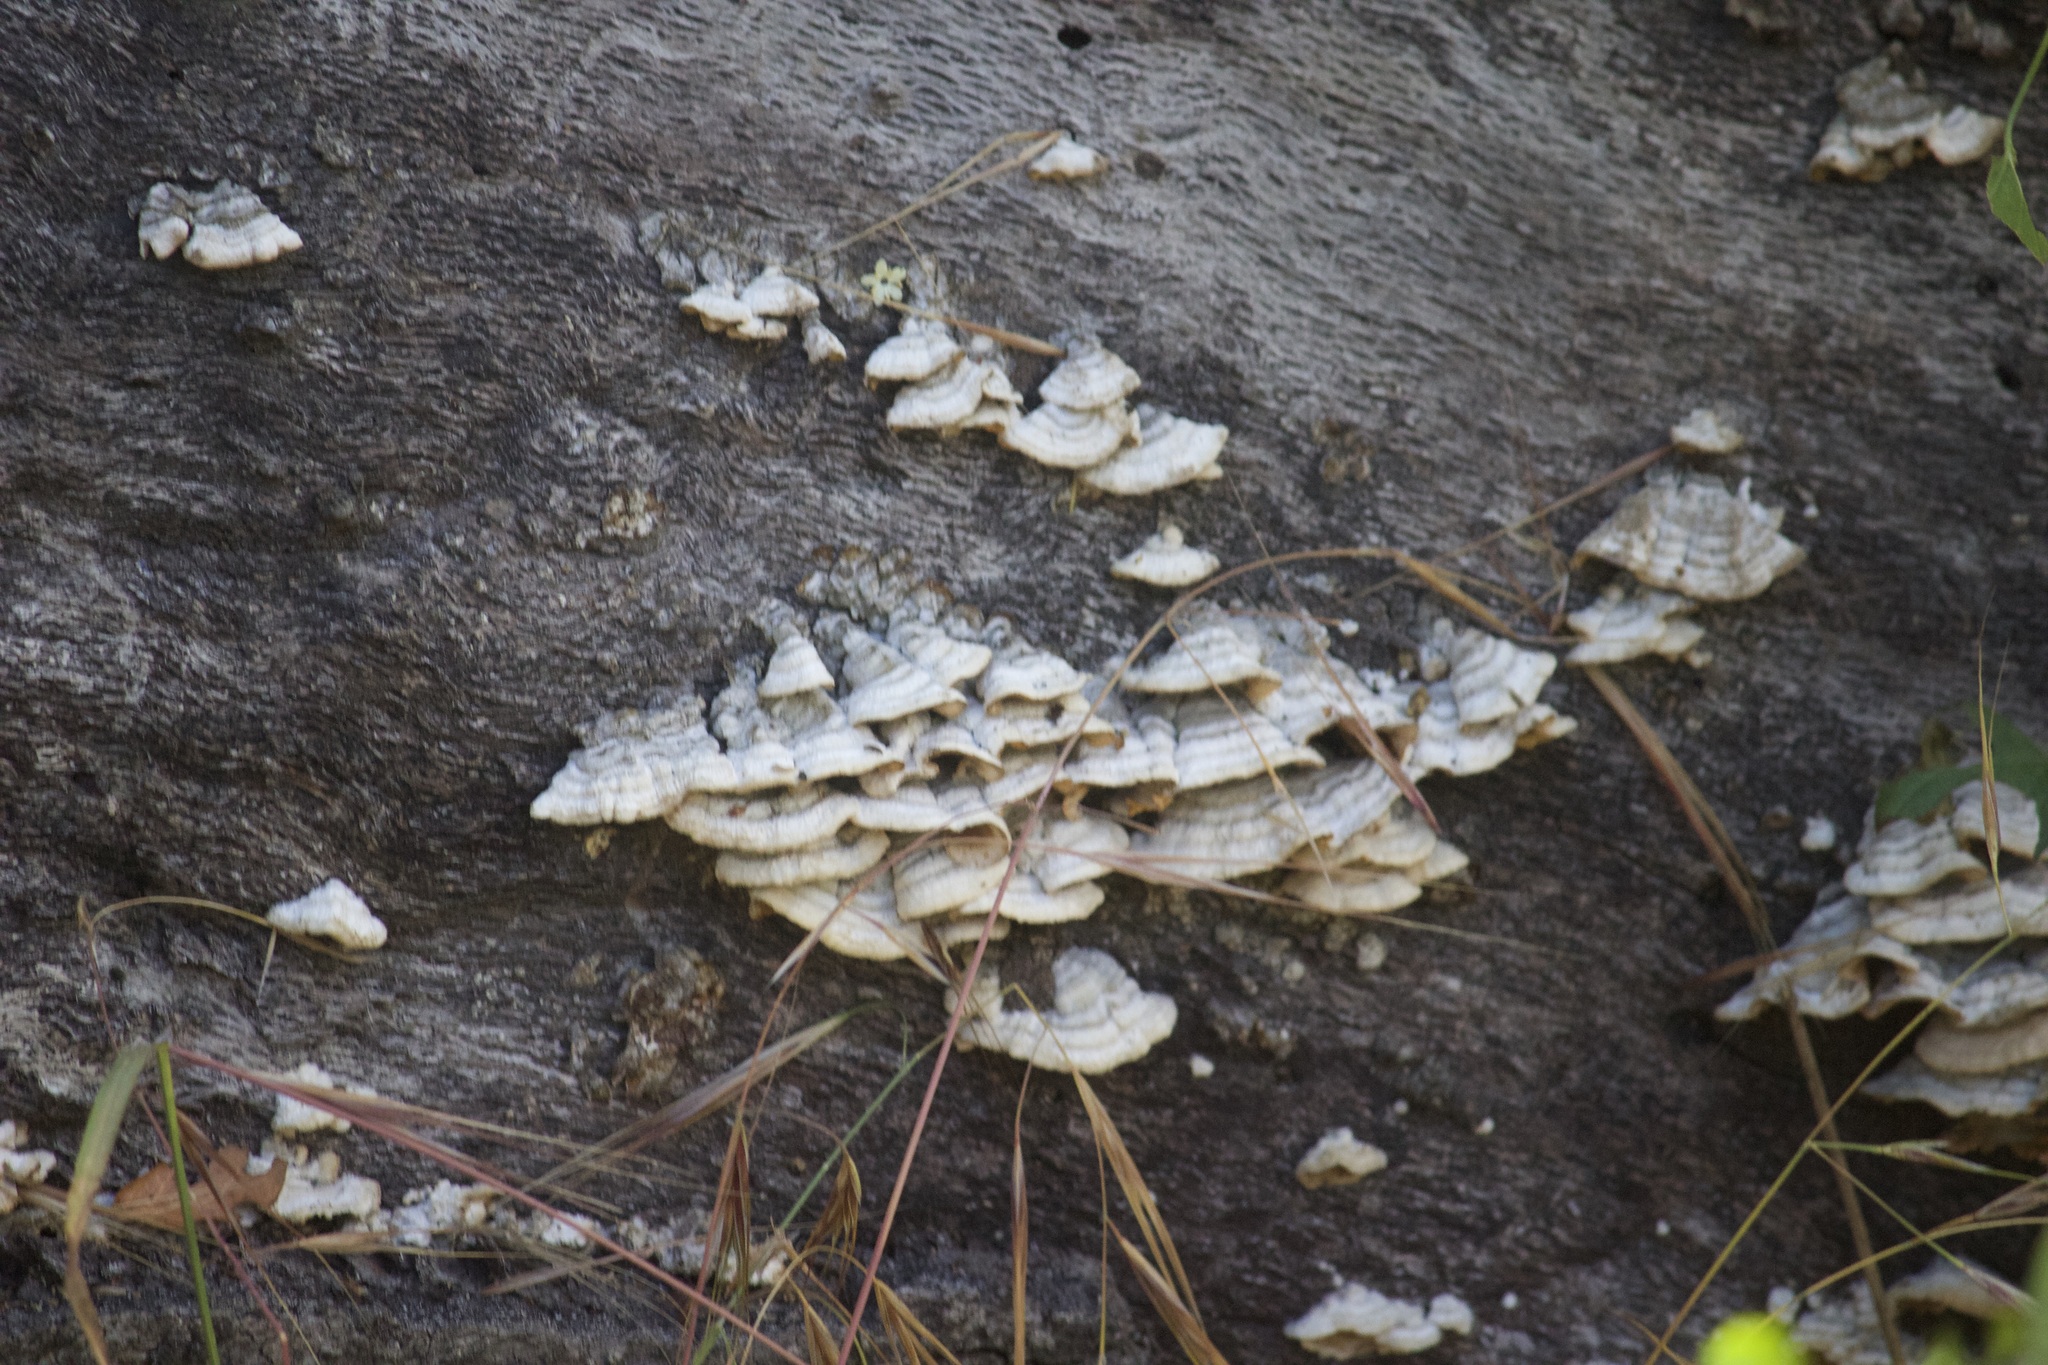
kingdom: Fungi
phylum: Basidiomycota
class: Agaricomycetes
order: Russulales
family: Stereaceae
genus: Stereum
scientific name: Stereum
